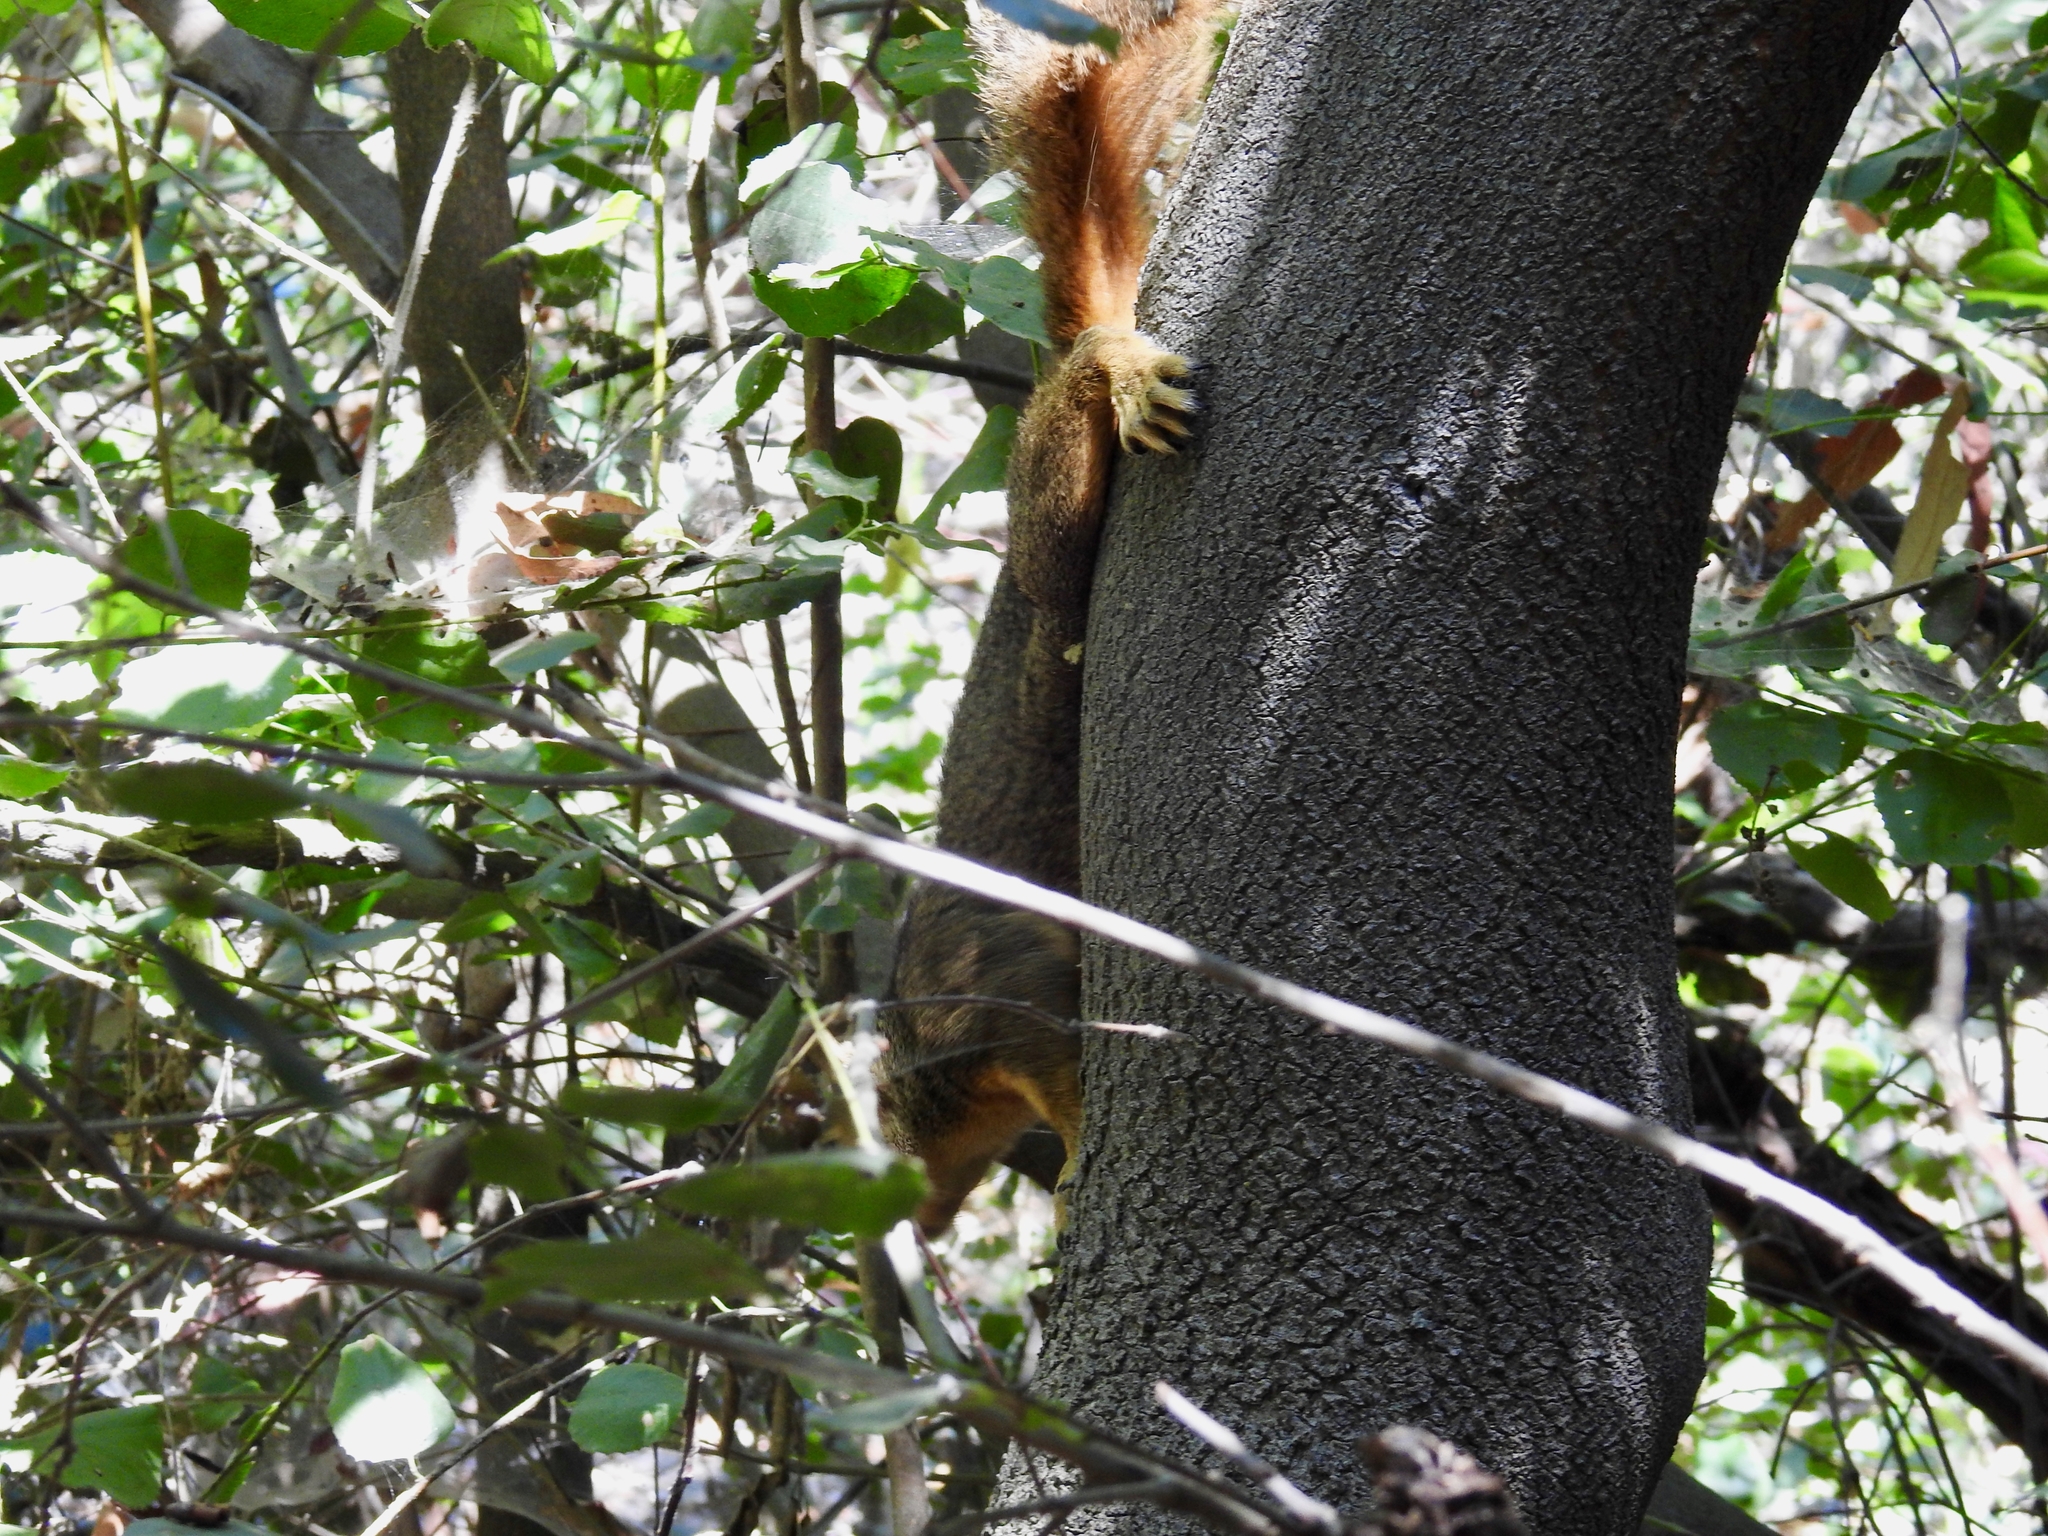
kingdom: Animalia
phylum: Chordata
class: Mammalia
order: Rodentia
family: Sciuridae
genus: Sciurus
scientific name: Sciurus niger
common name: Fox squirrel
